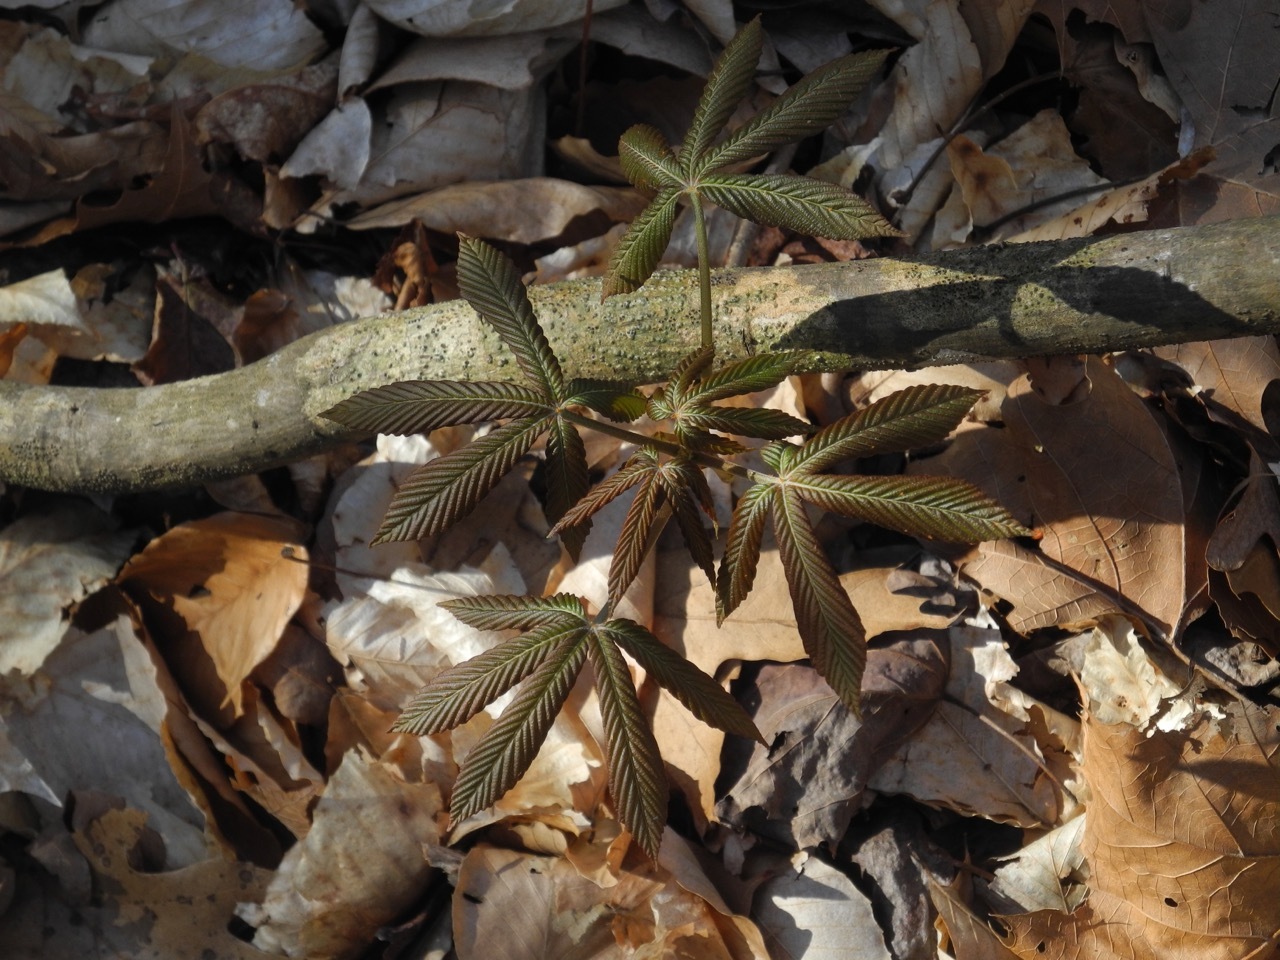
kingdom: Plantae
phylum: Tracheophyta
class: Magnoliopsida
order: Sapindales
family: Sapindaceae
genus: Aesculus
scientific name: Aesculus sylvatica
